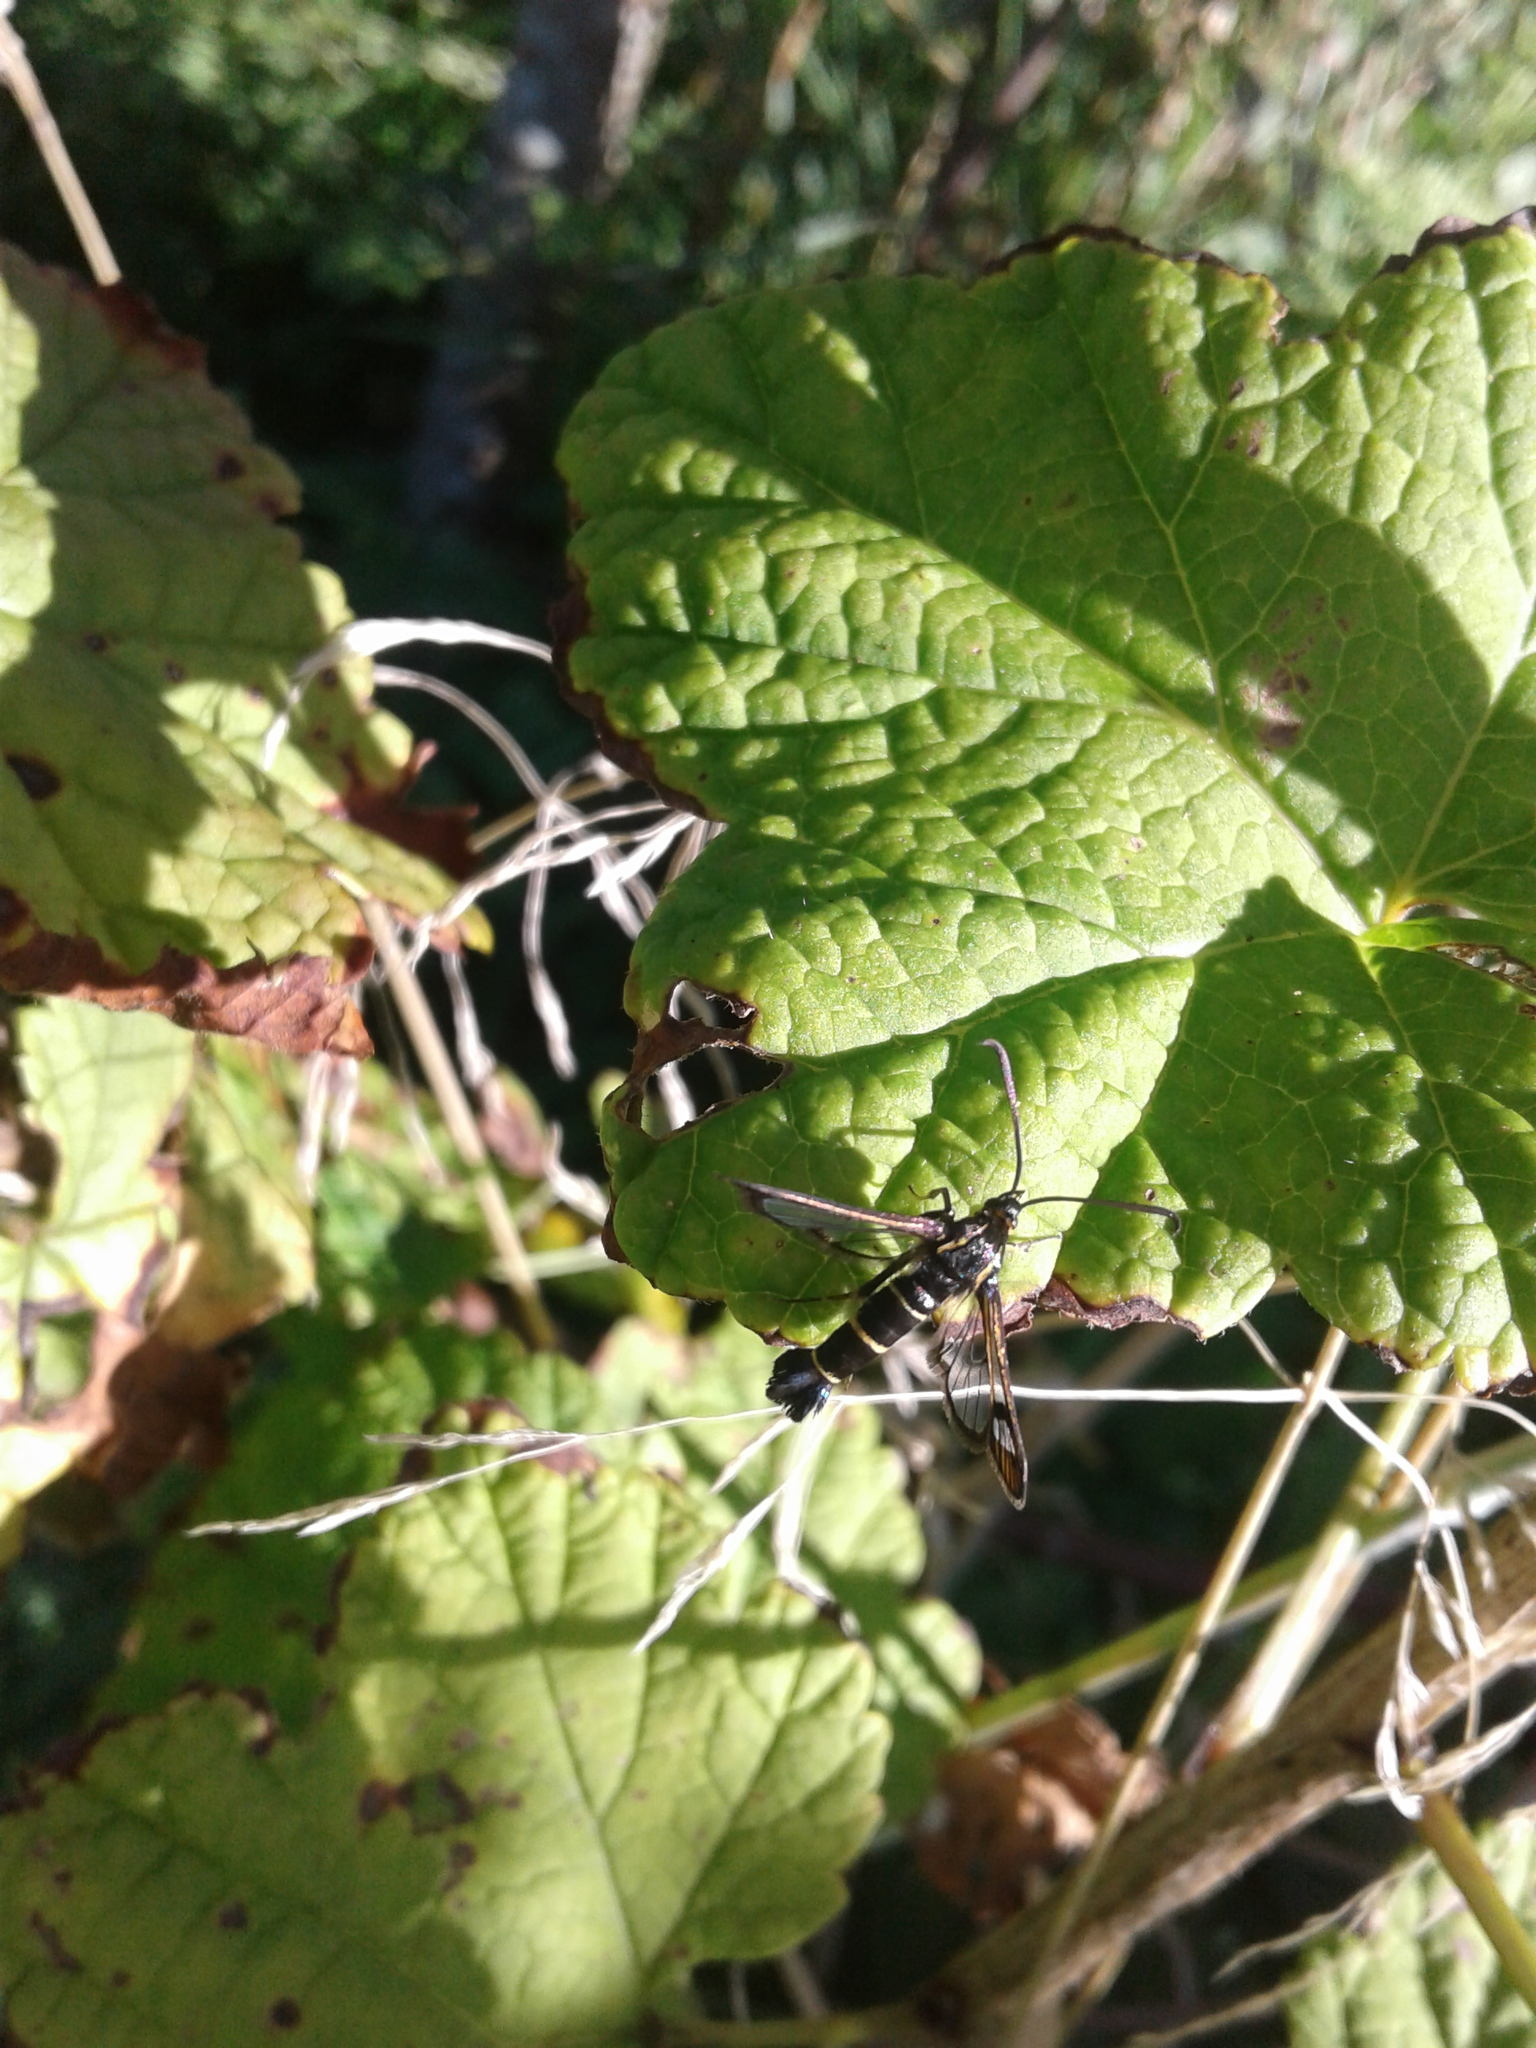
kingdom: Animalia
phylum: Arthropoda
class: Insecta
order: Lepidoptera
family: Sesiidae
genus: Synanthedon
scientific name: Synanthedon tipuliformis
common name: Currant clearwing
